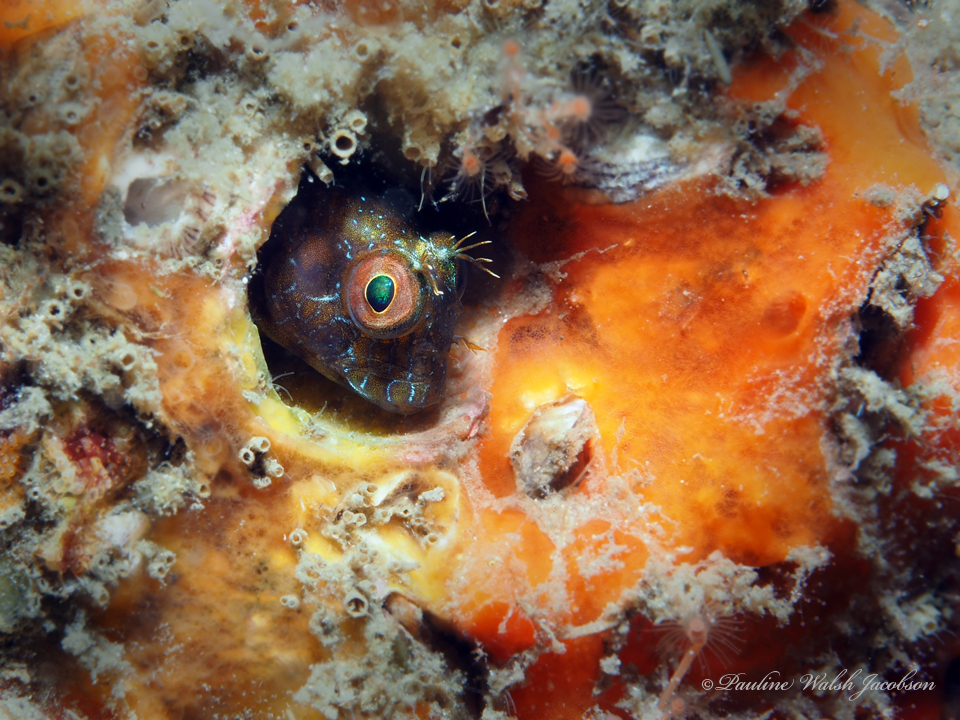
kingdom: Animalia
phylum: Chordata
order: Perciformes
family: Blenniidae
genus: Parablennius
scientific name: Parablennius marmoreus
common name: Seaweed blenny
